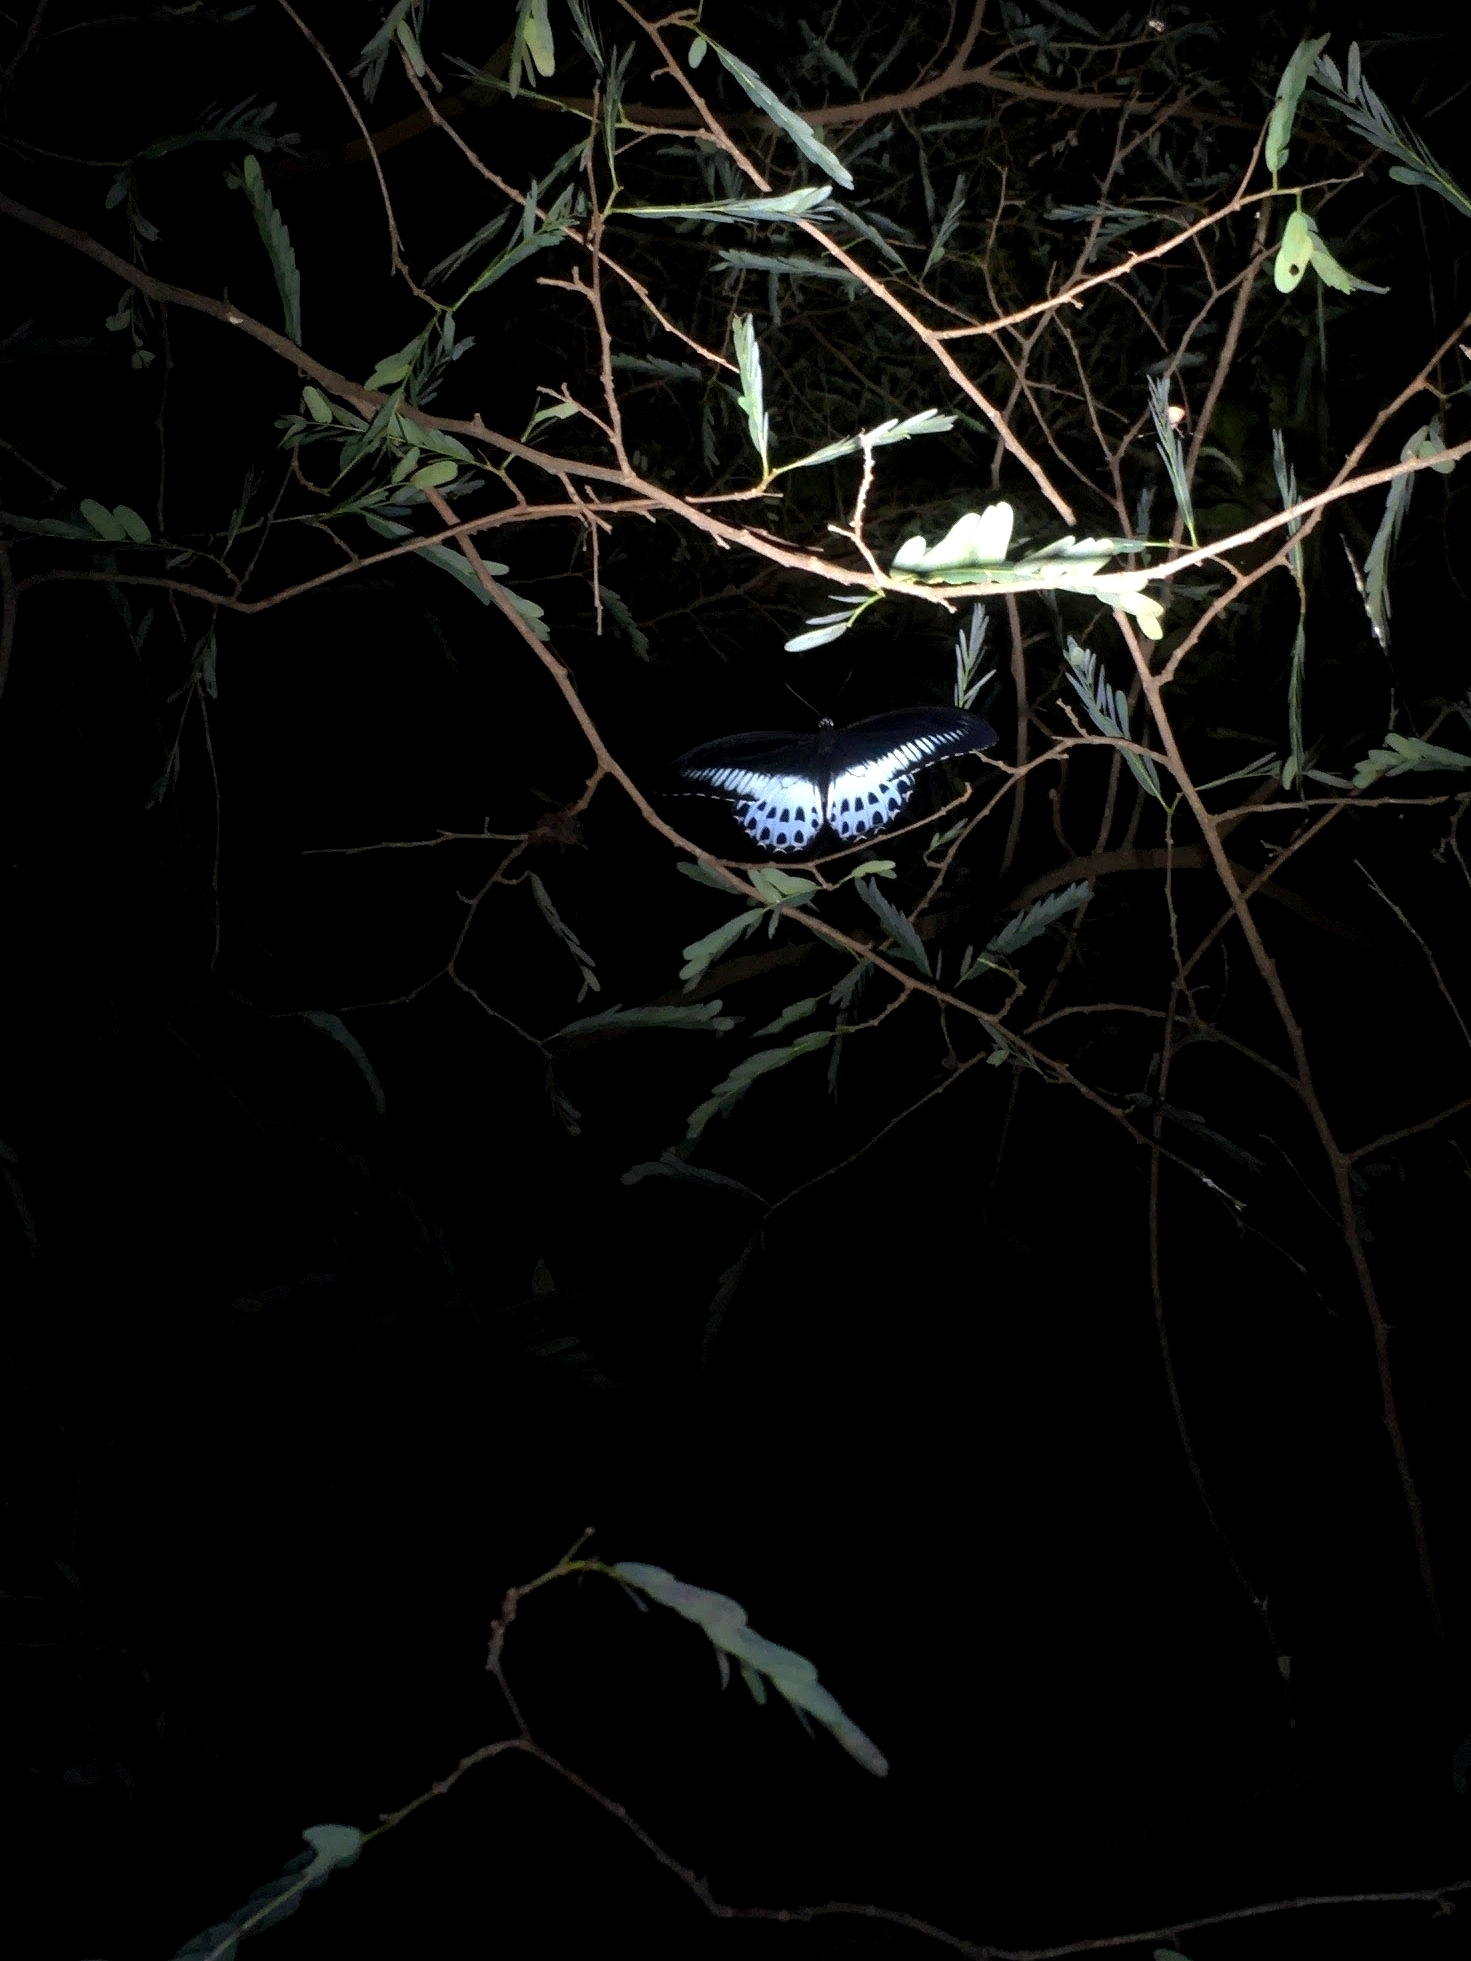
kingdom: Animalia
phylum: Arthropoda
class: Insecta
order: Lepidoptera
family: Papilionidae
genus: Papilio
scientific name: Papilio memnon
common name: Great mormon
